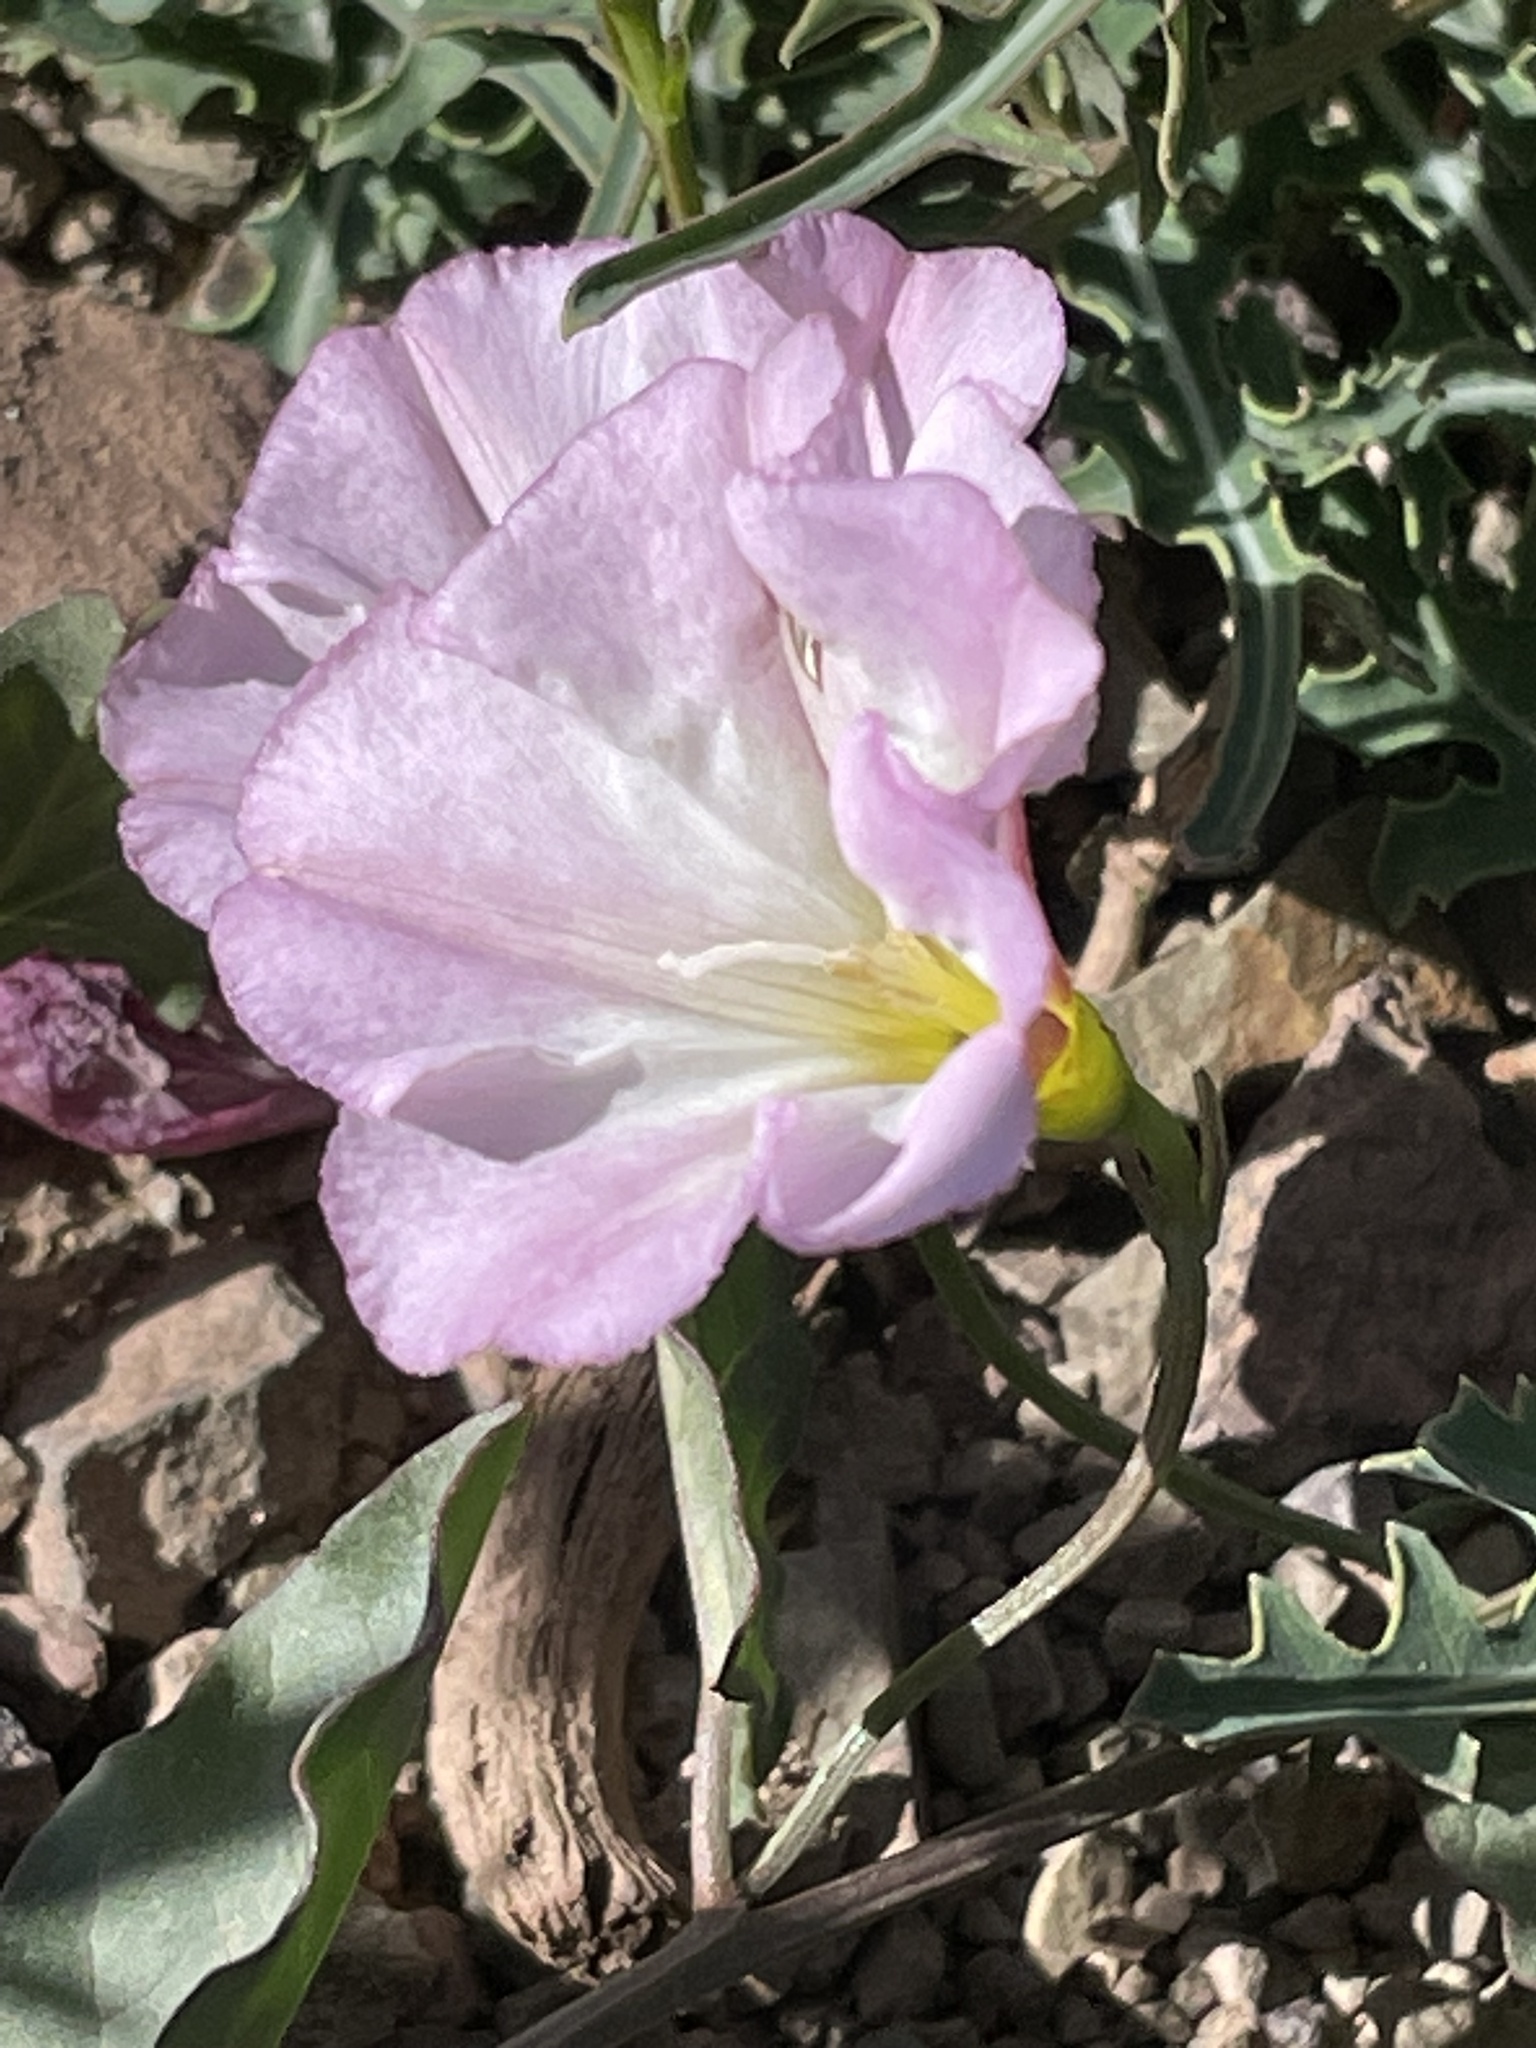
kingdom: Plantae
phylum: Tracheophyta
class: Magnoliopsida
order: Solanales
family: Convolvulaceae
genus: Convolvulus
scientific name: Convolvulus arvensis
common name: Field bindweed
